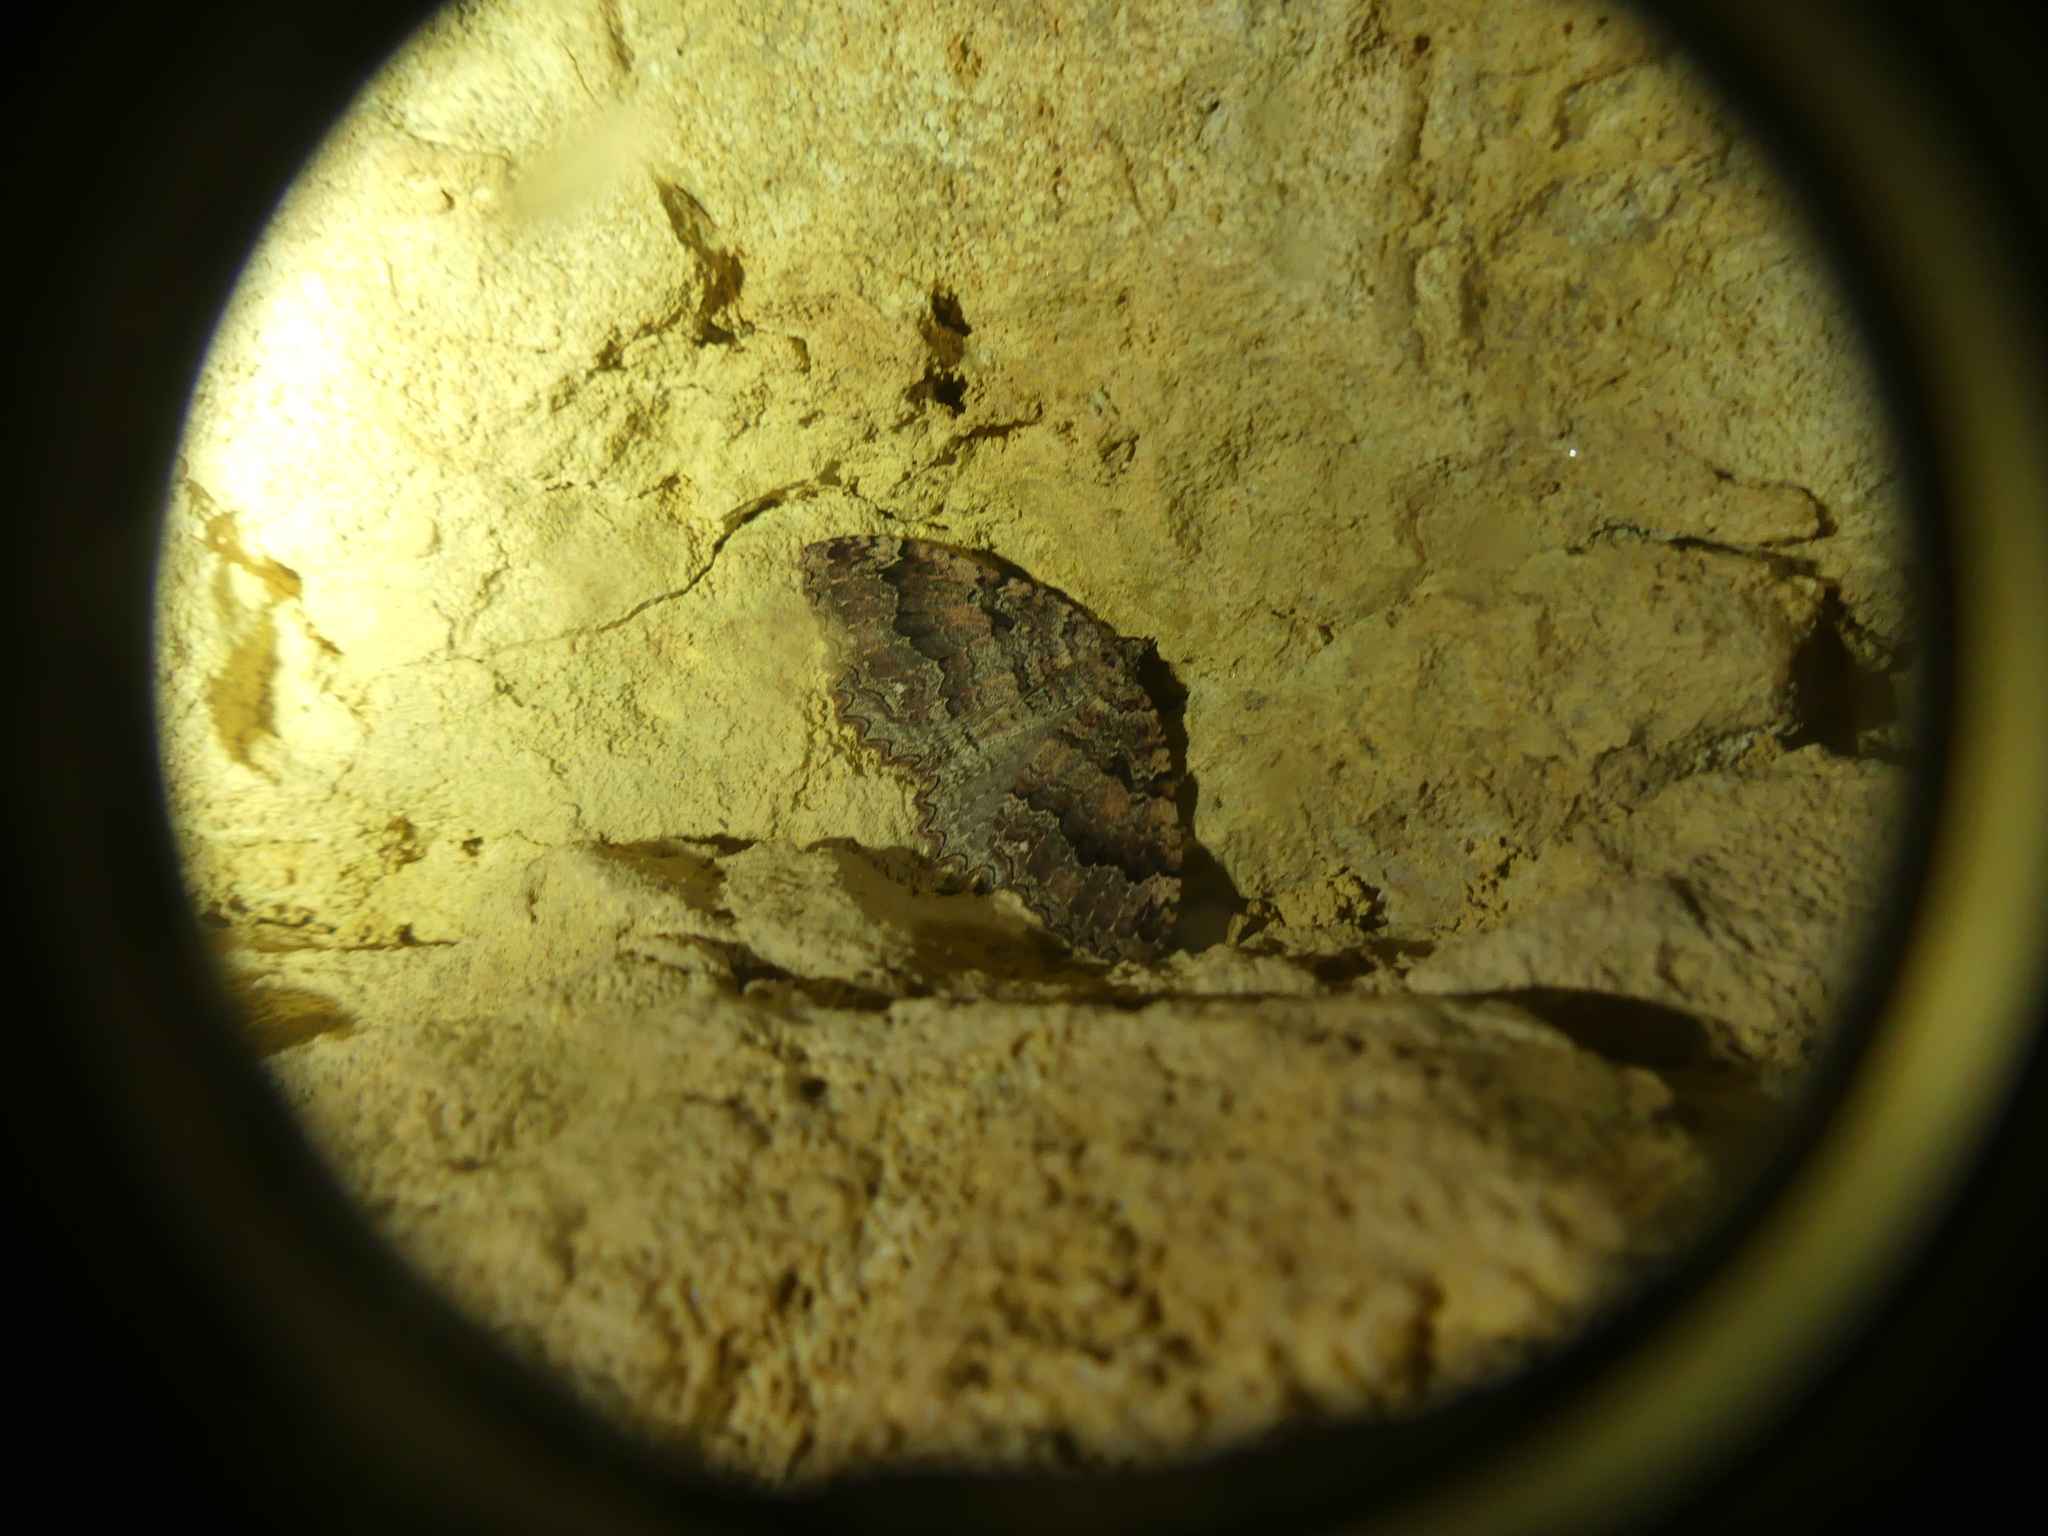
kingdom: Animalia
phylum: Arthropoda
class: Insecta
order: Lepidoptera
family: Geometridae
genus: Triphosa
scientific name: Triphosa dubitata
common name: Tissue
